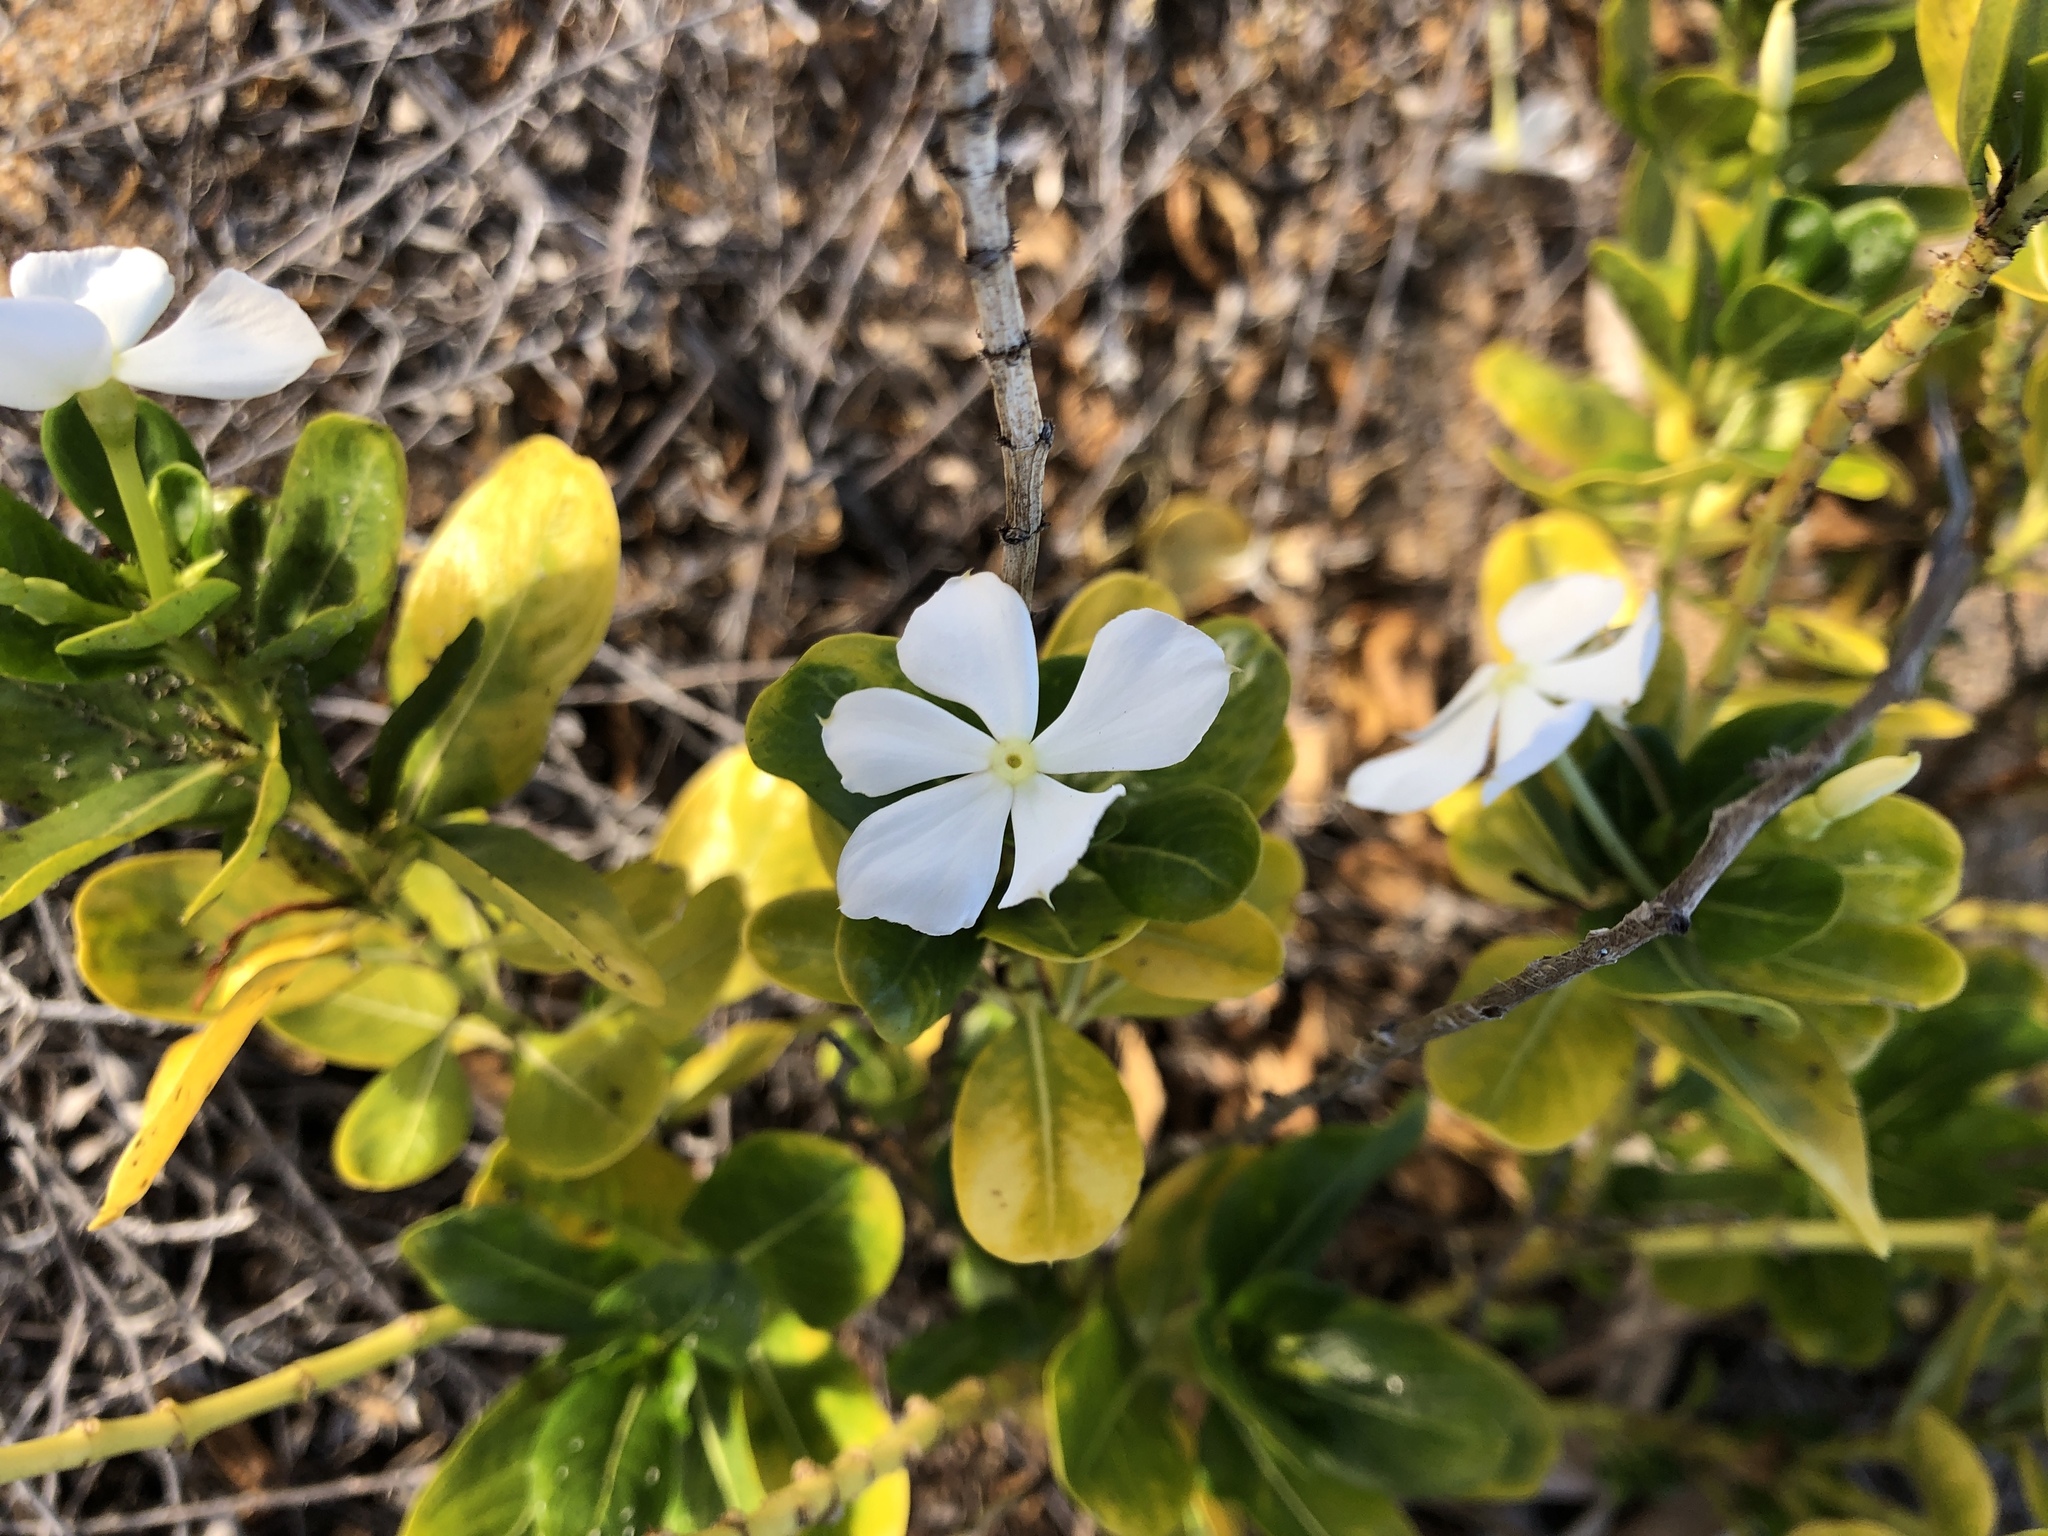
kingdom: Plantae
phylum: Tracheophyta
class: Magnoliopsida
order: Gentianales
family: Apocynaceae
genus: Catharanthus
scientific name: Catharanthus roseus
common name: Madagascar periwinkle
